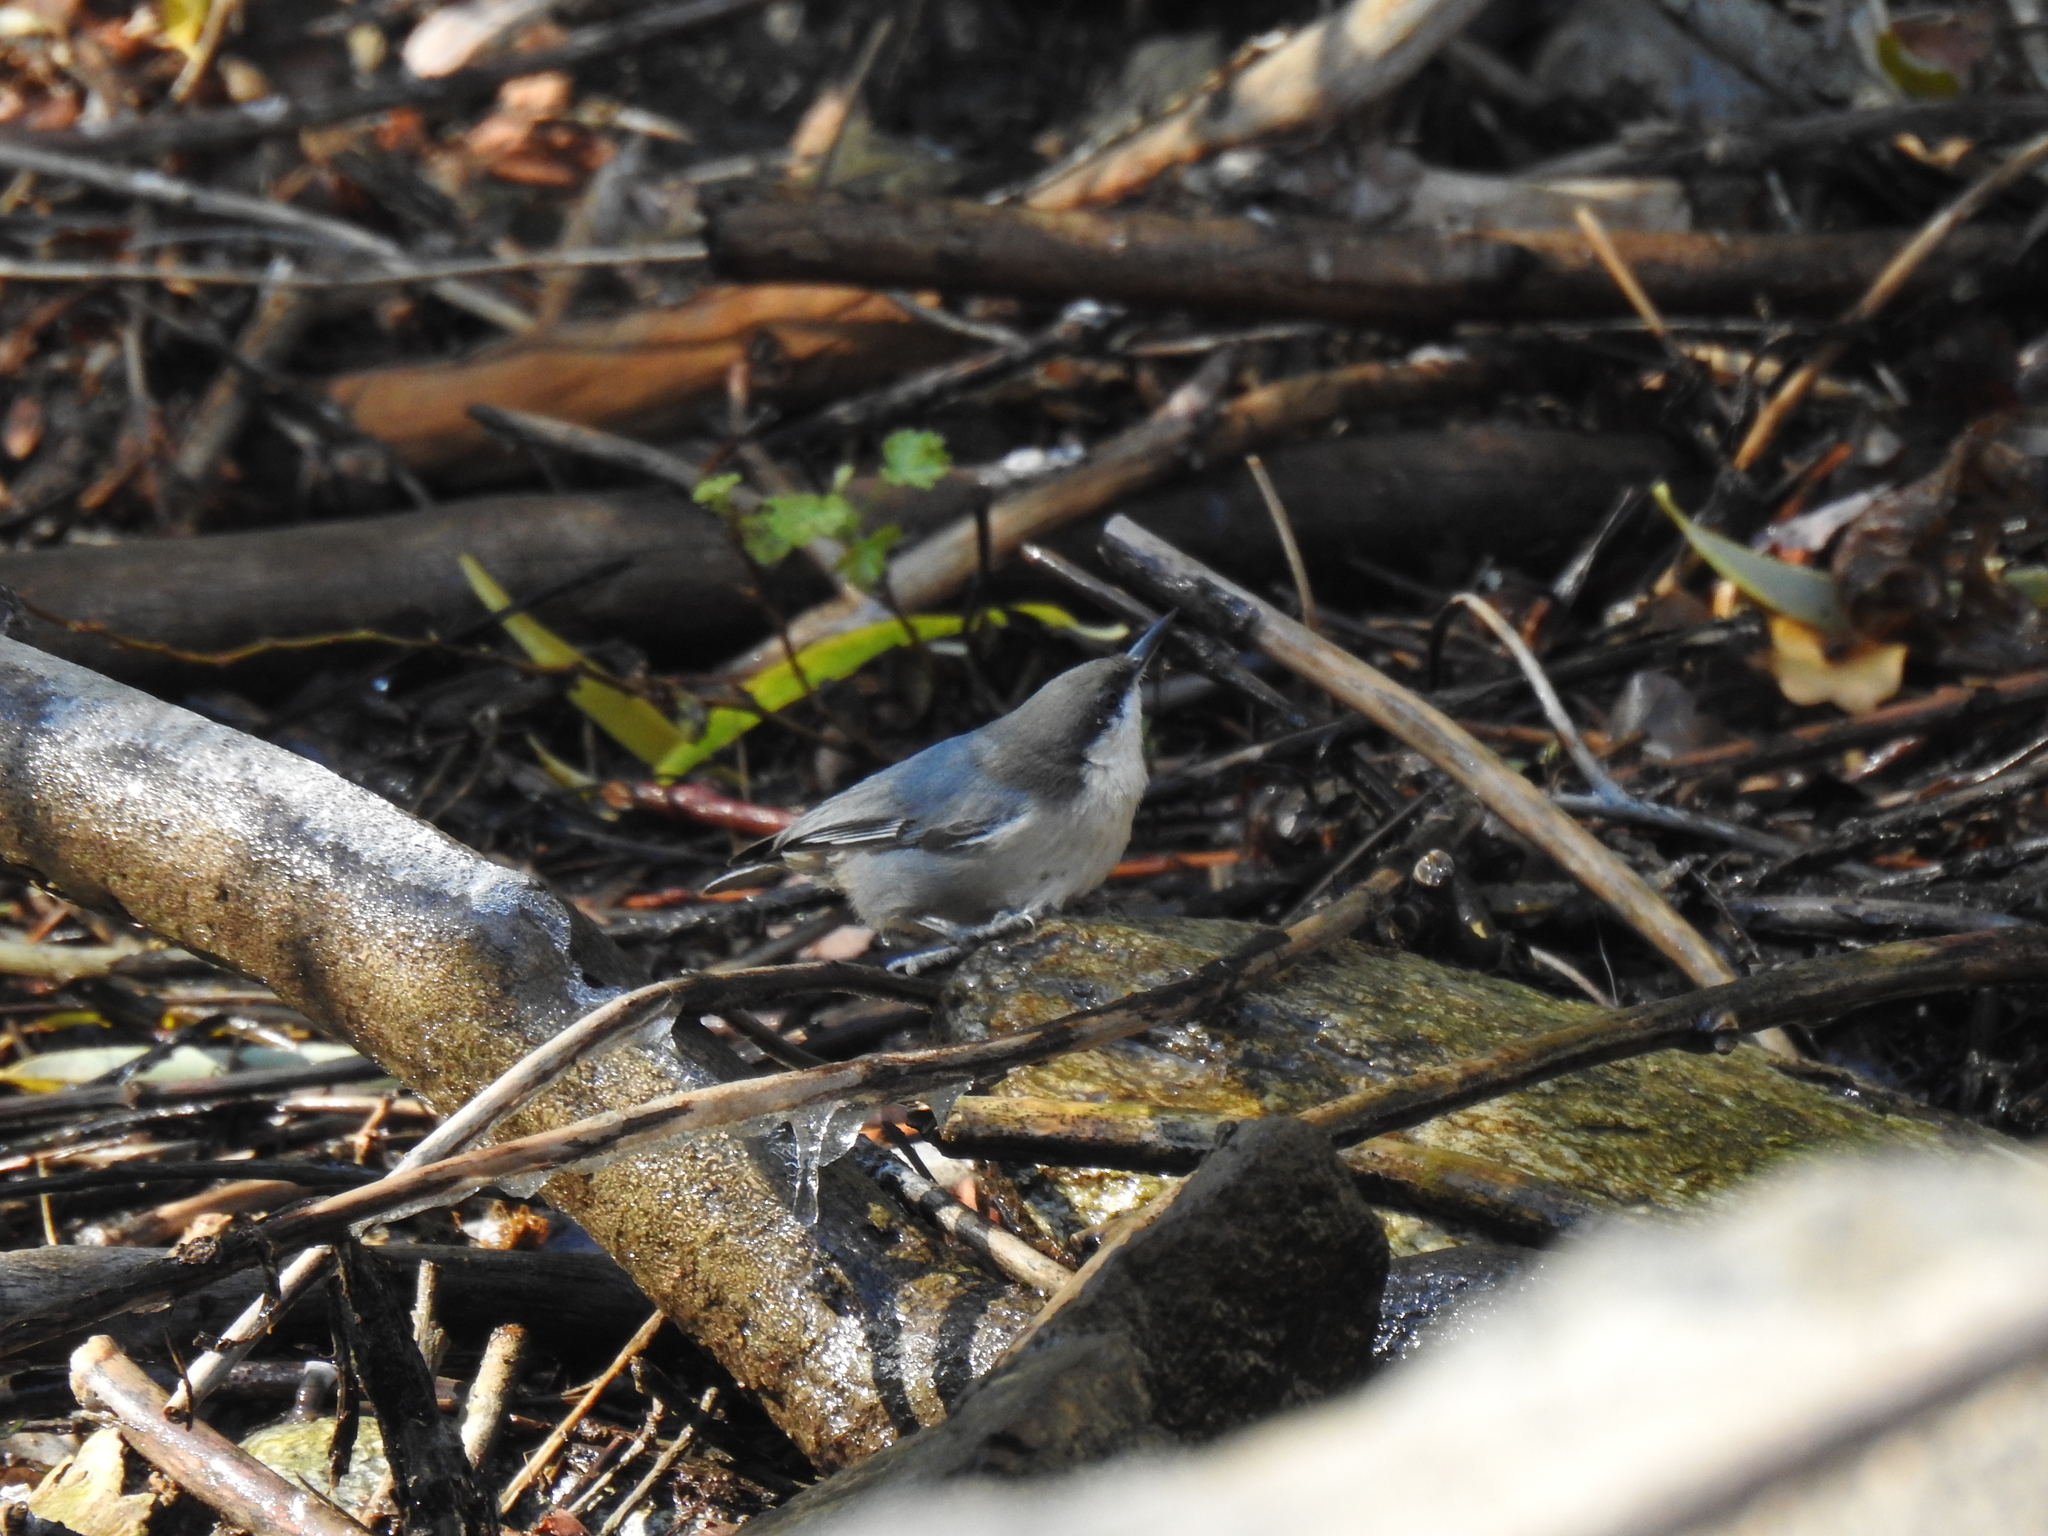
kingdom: Animalia
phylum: Chordata
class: Aves
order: Passeriformes
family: Sittidae
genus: Sitta
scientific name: Sitta pygmaea
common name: Pygmy nuthatch
